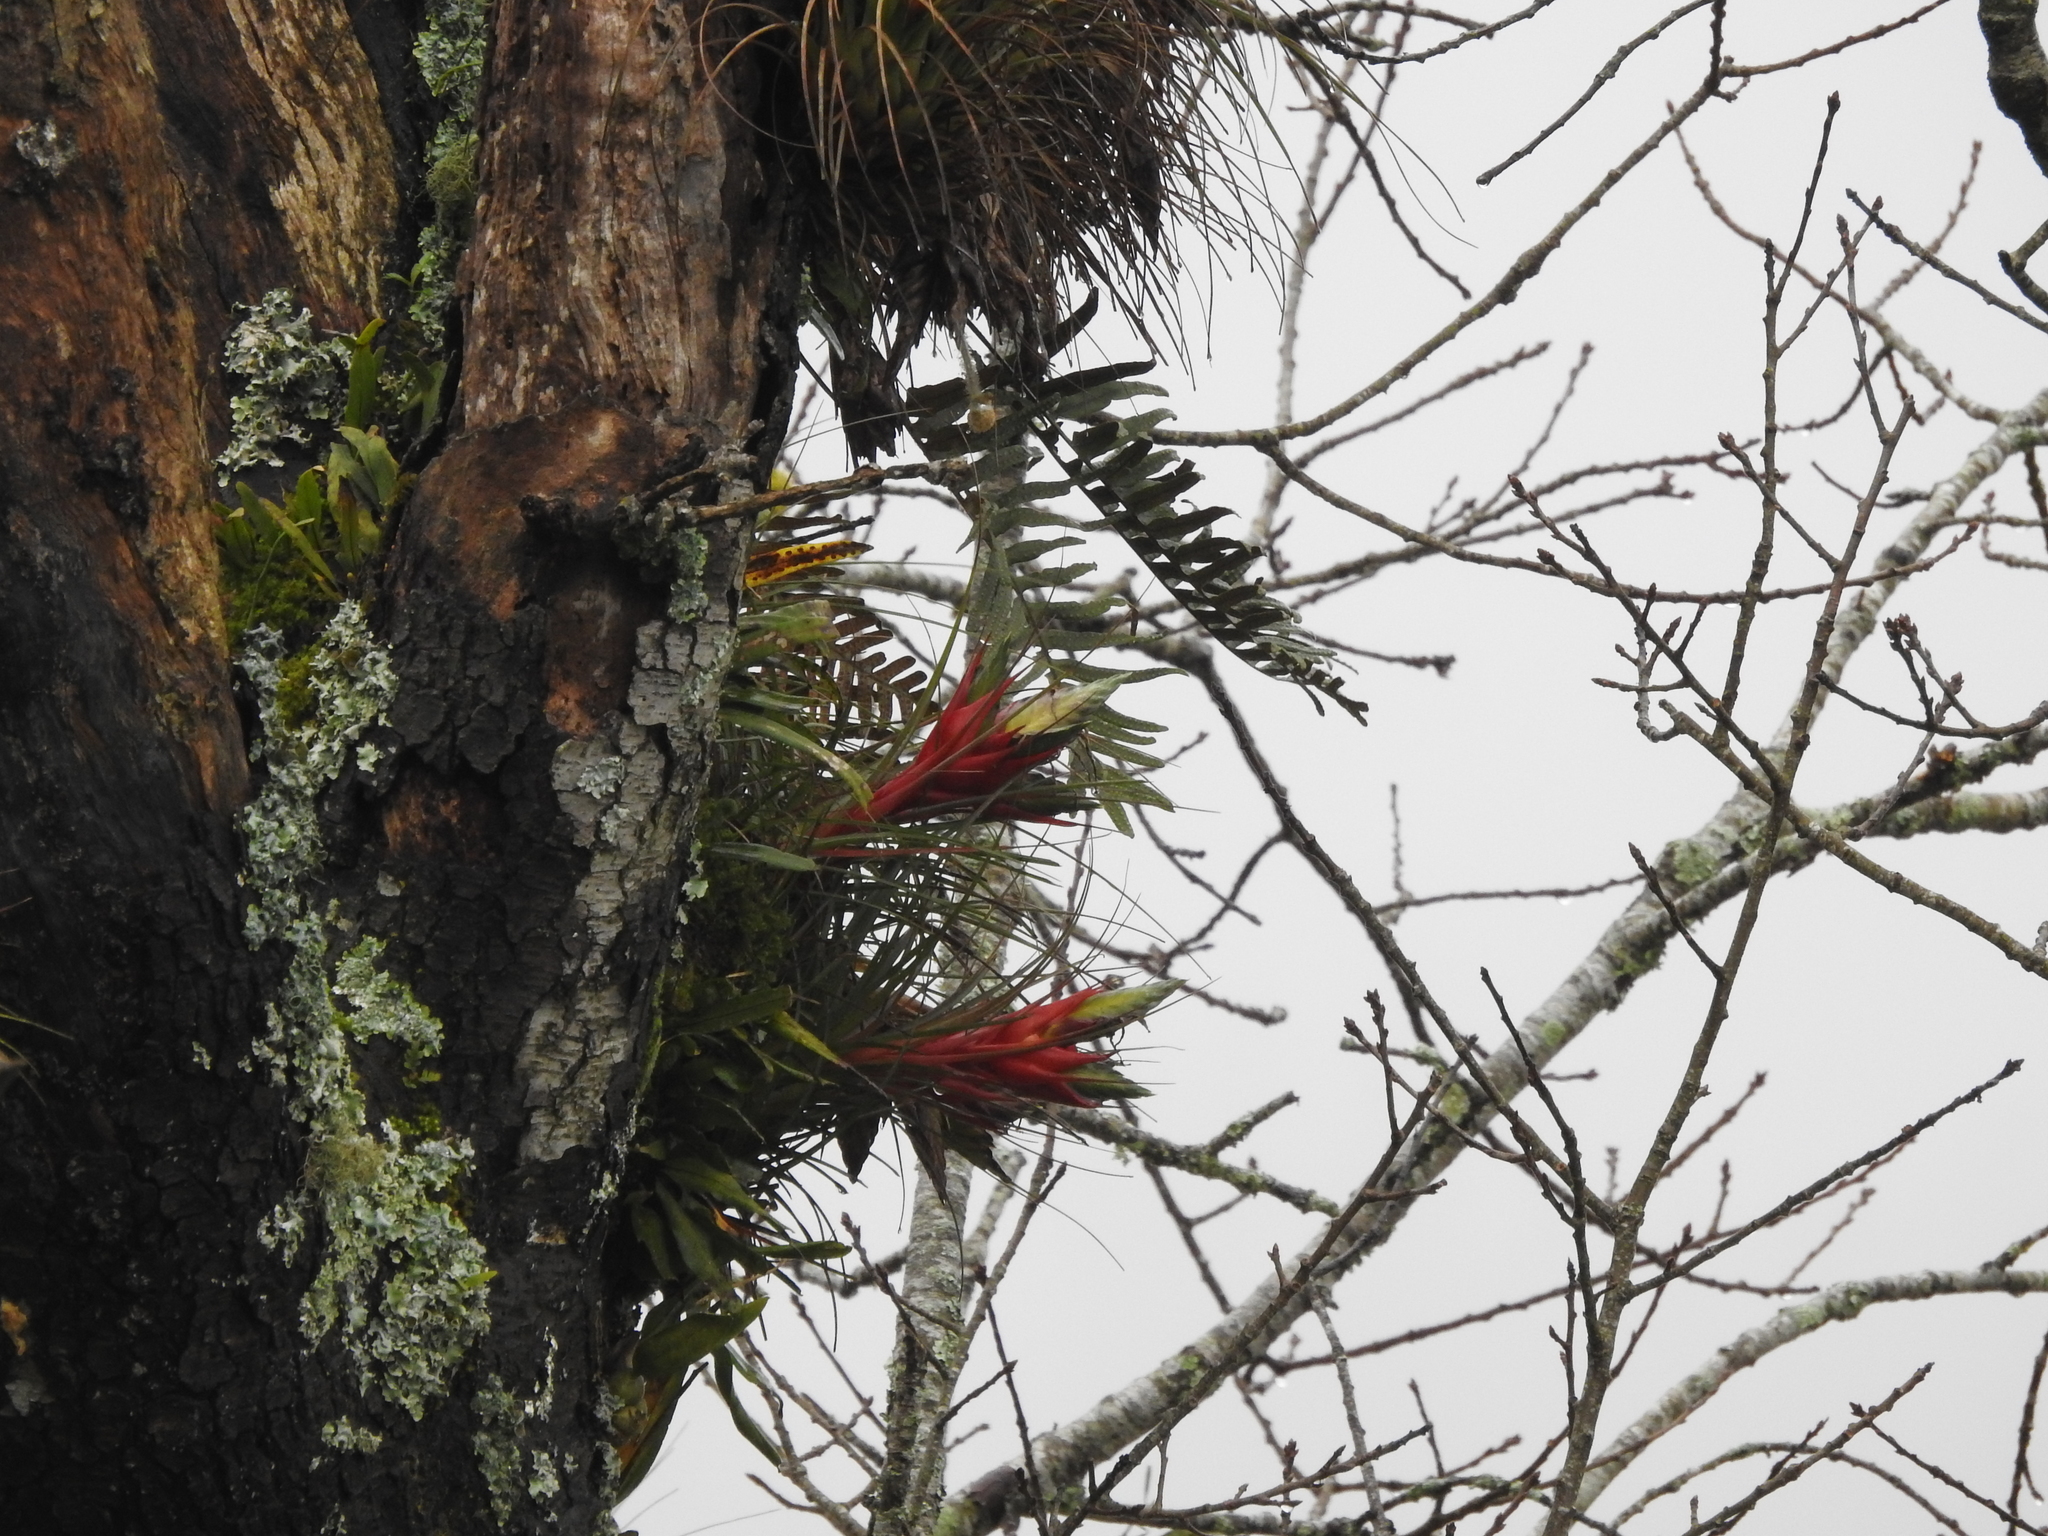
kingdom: Plantae
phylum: Tracheophyta
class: Liliopsida
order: Poales
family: Bromeliaceae
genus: Tillandsia
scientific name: Tillandsia punctulata
